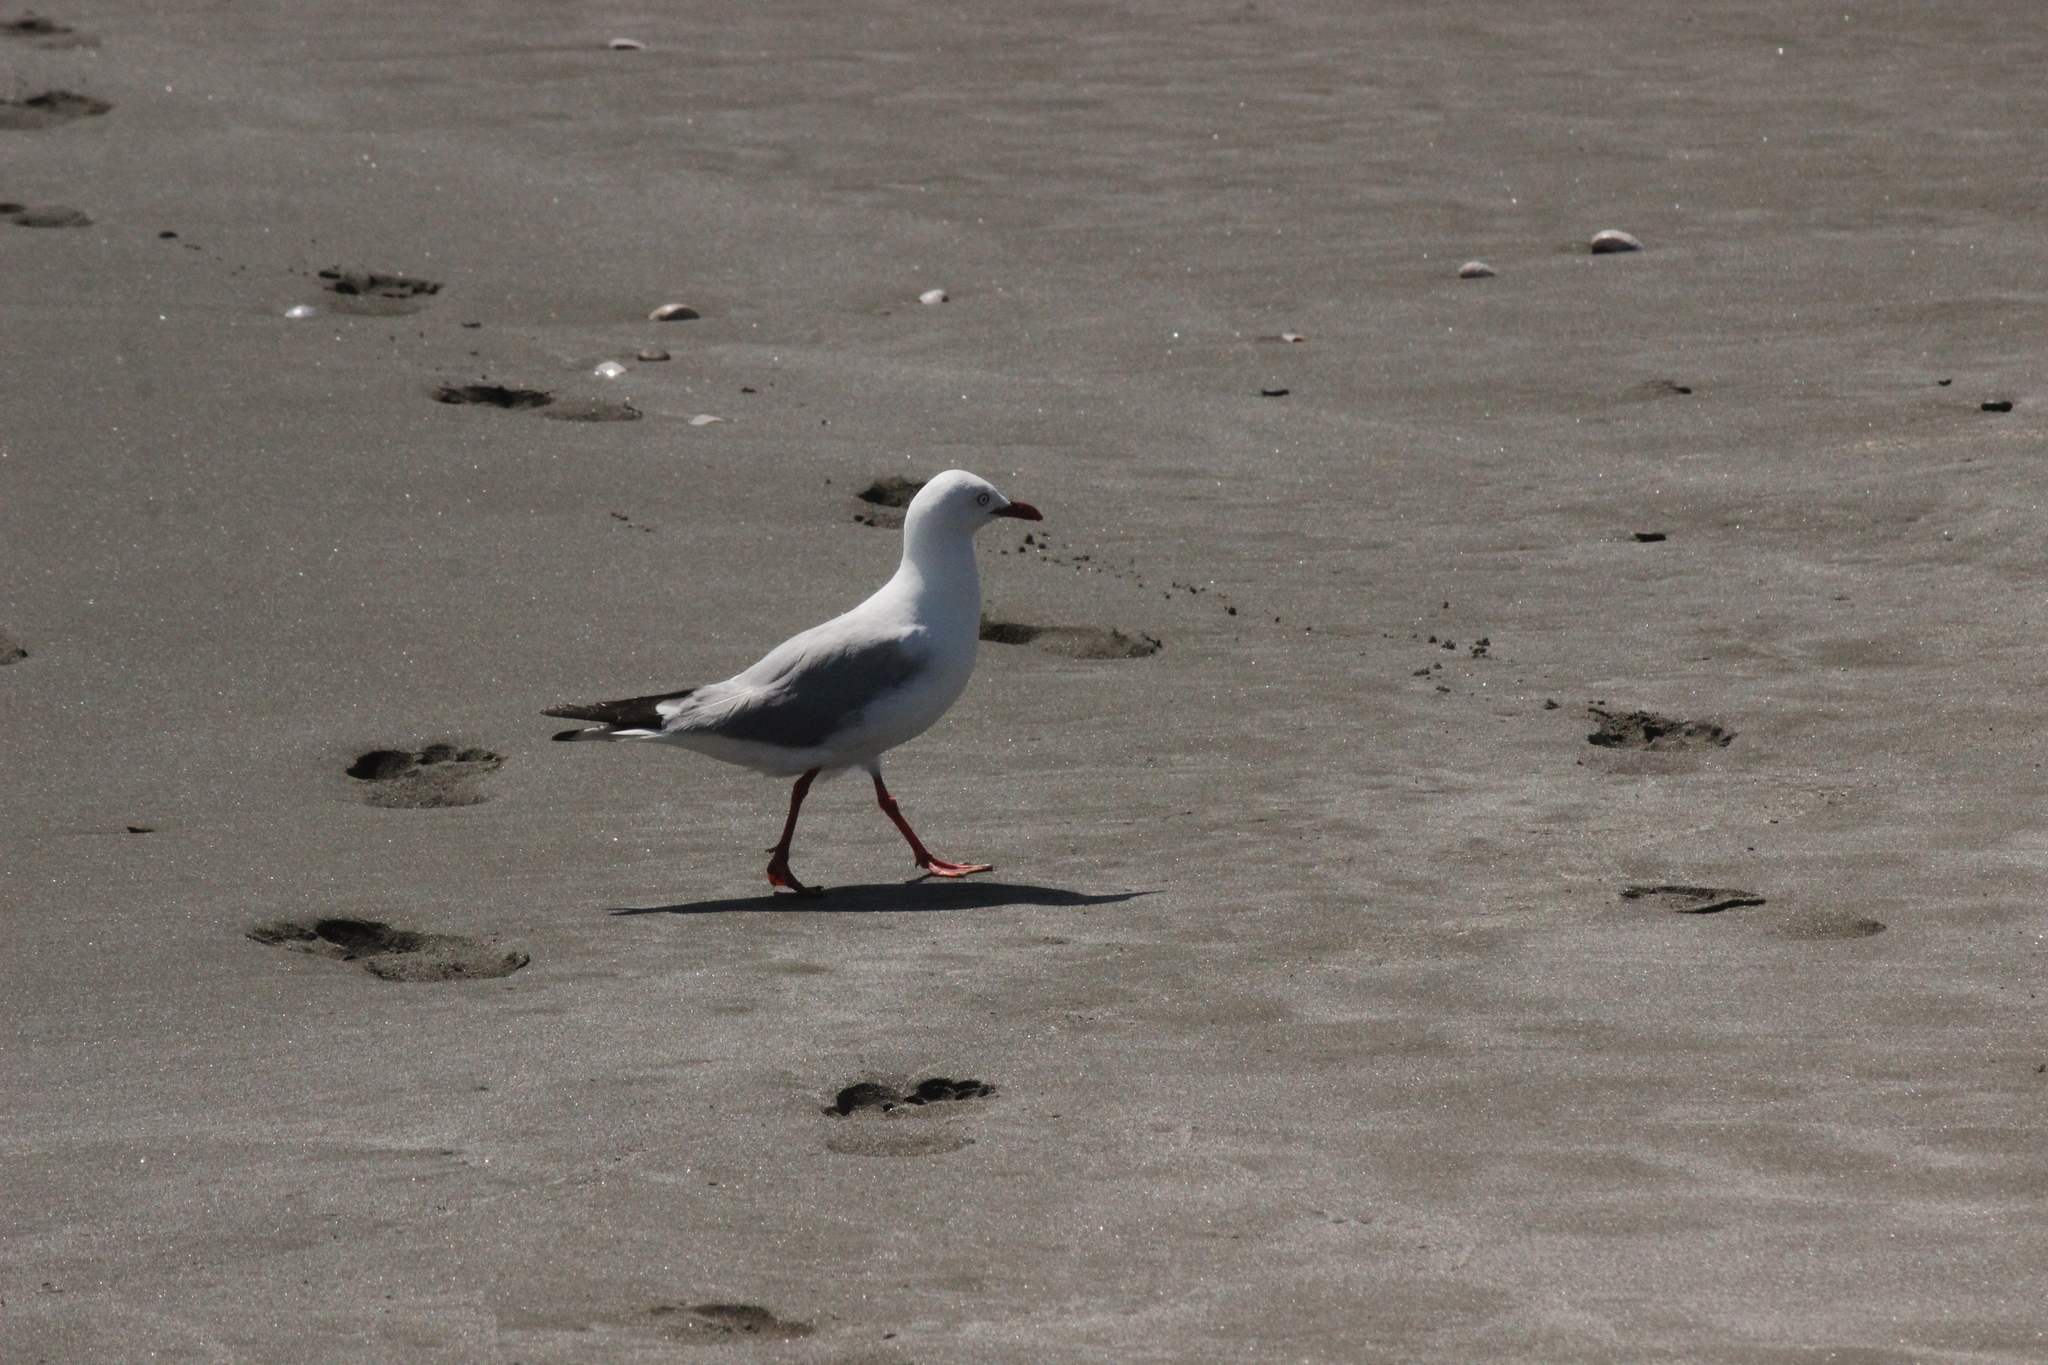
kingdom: Animalia
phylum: Chordata
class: Aves
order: Charadriiformes
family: Laridae
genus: Chroicocephalus
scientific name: Chroicocephalus novaehollandiae
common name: Silver gull
